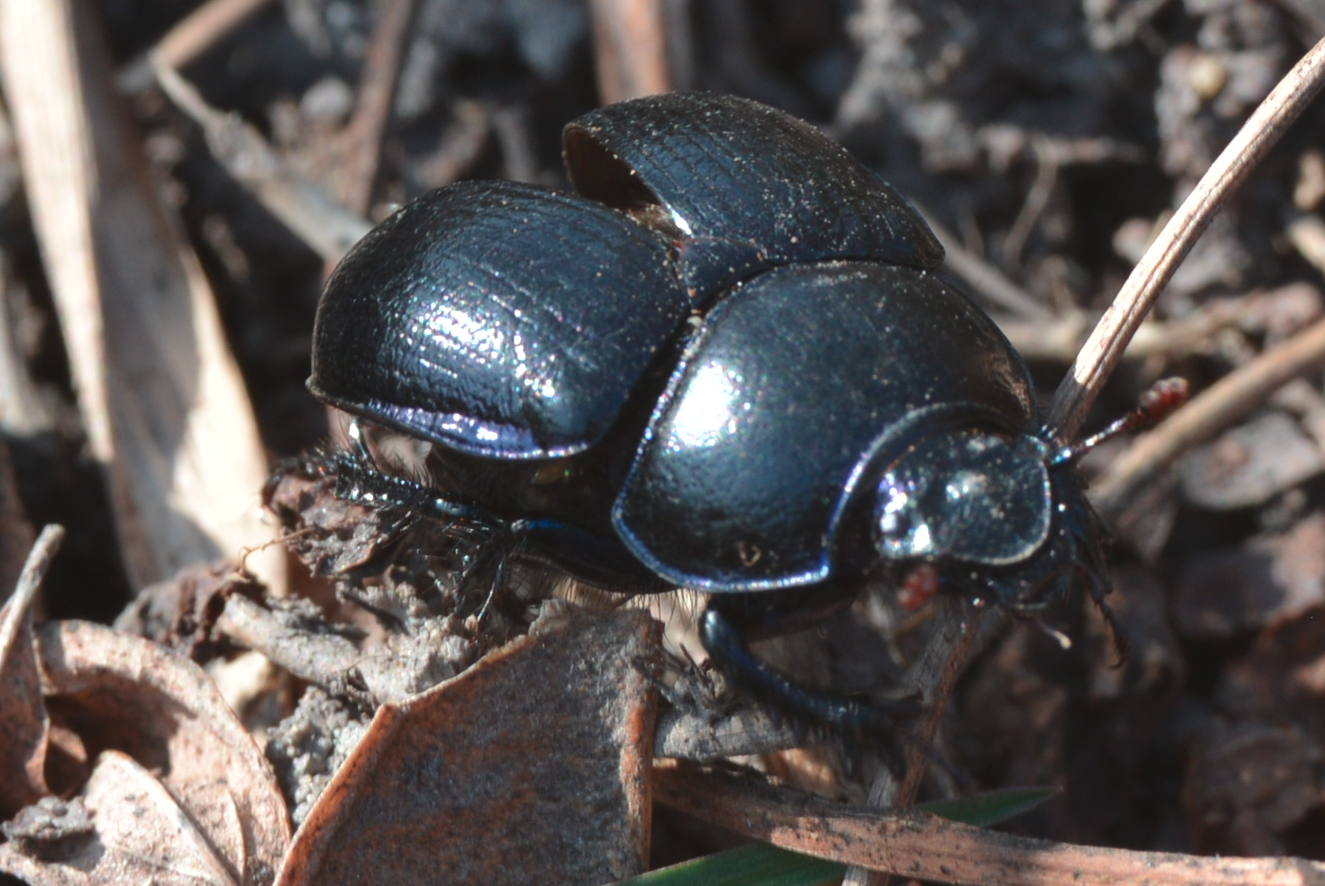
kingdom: Animalia
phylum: Arthropoda
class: Insecta
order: Coleoptera
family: Geotrupidae
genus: Anoplotrupes
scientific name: Anoplotrupes stercorosus
